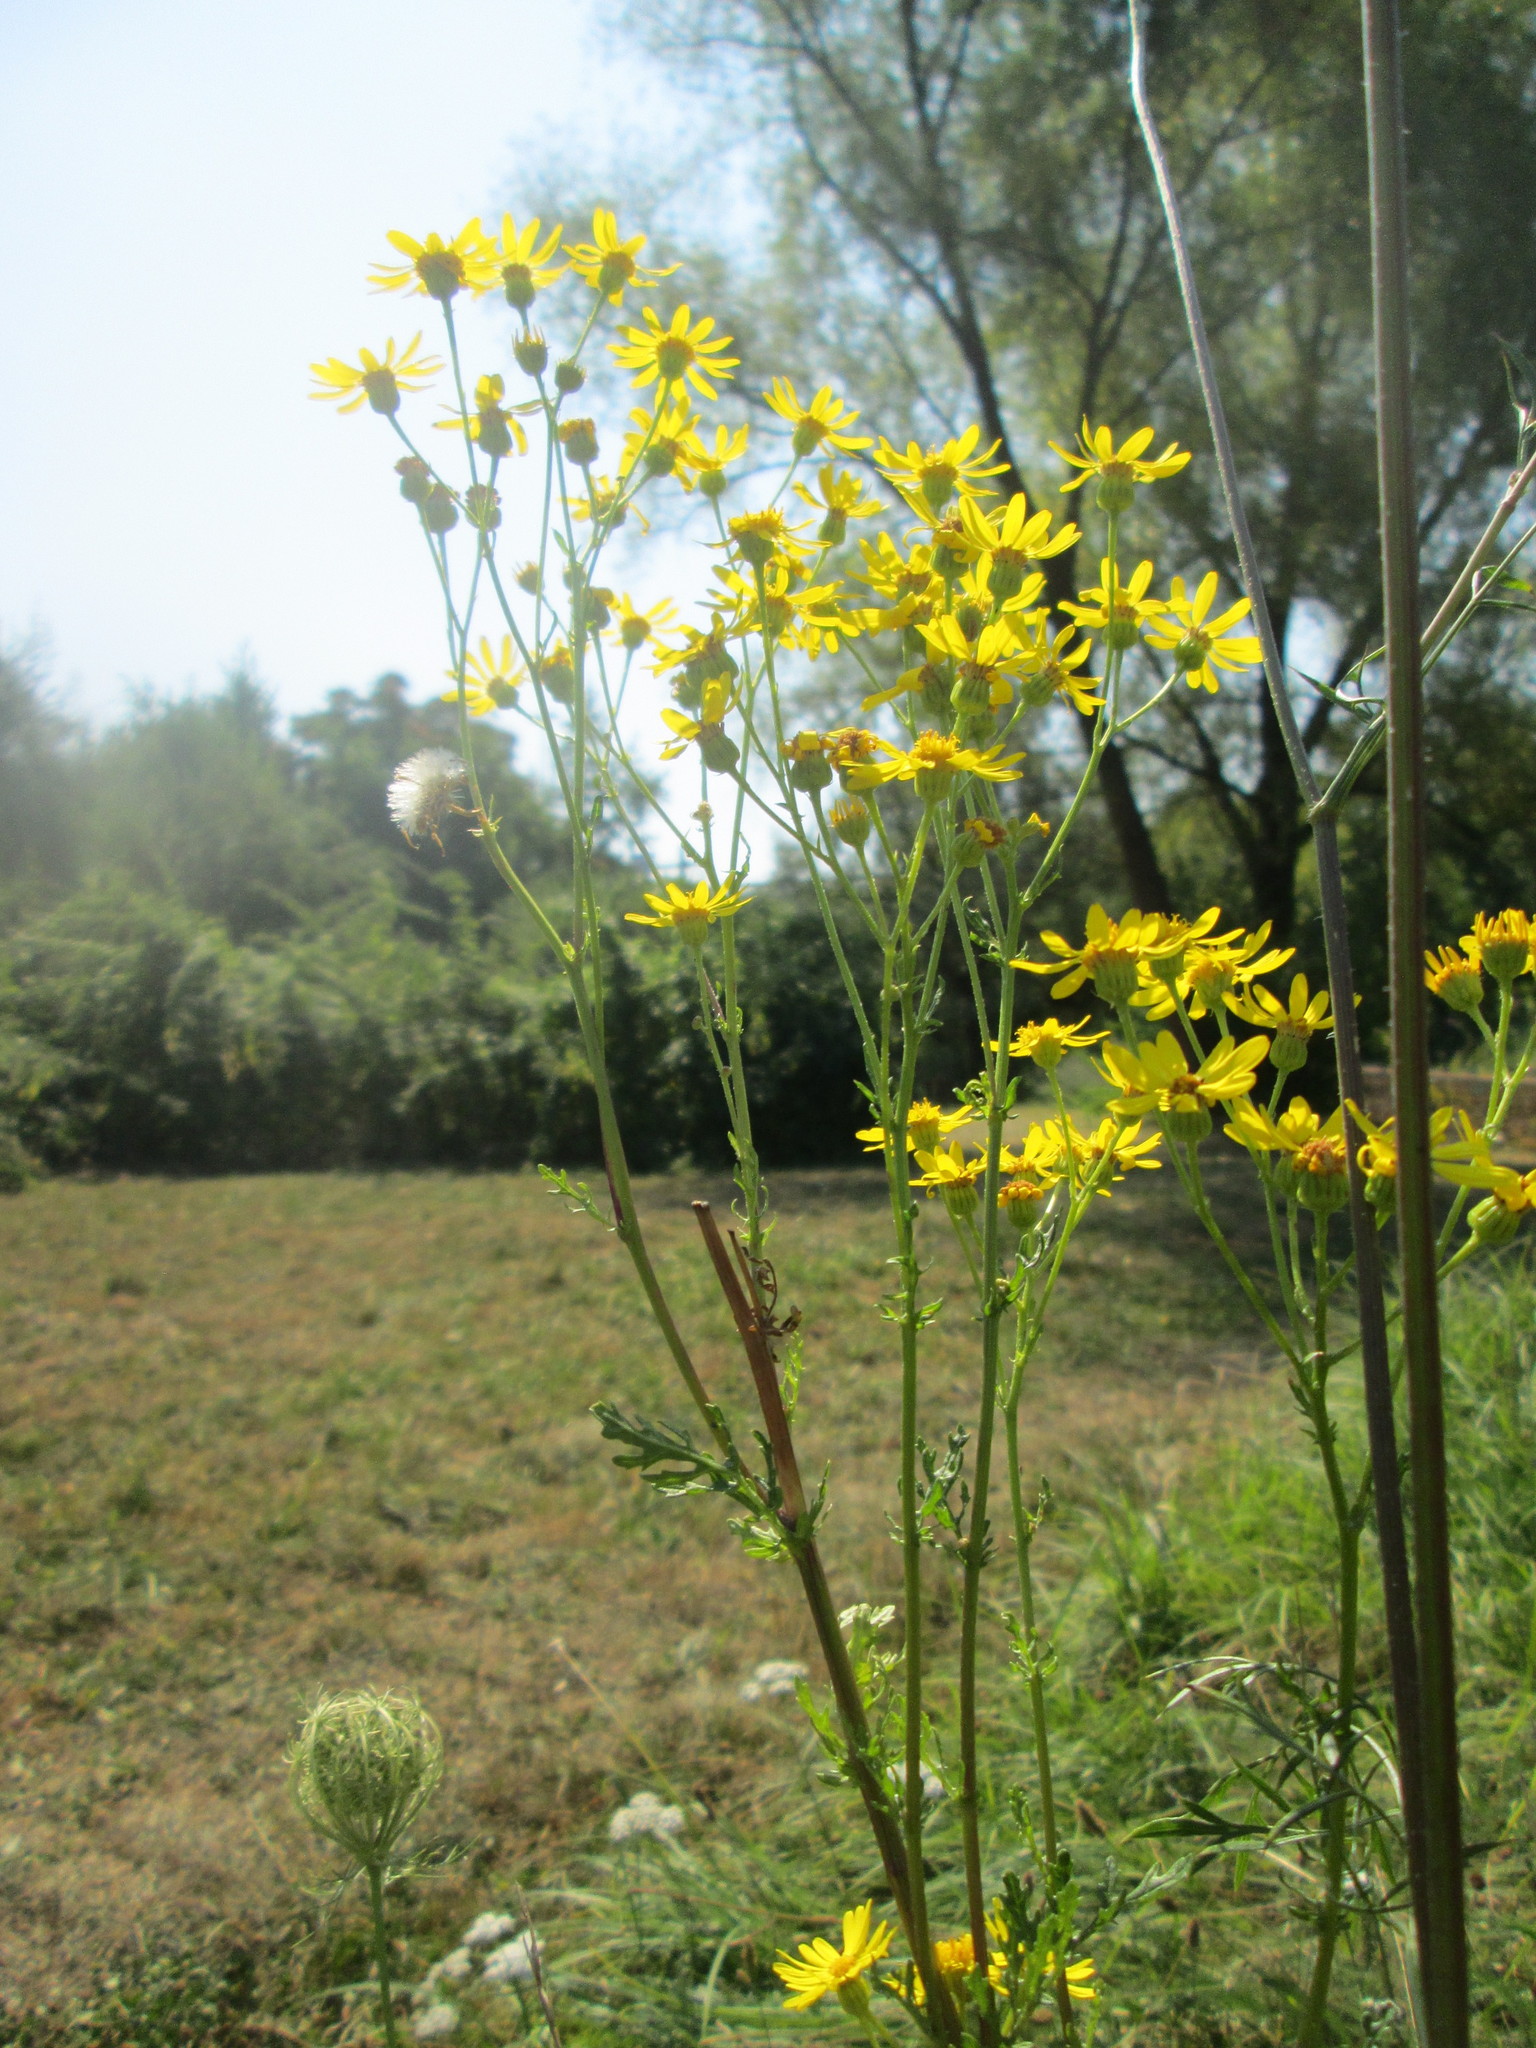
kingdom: Plantae
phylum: Tracheophyta
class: Magnoliopsida
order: Asterales
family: Asteraceae
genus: Jacobaea
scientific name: Jacobaea vulgaris
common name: Stinking willie
